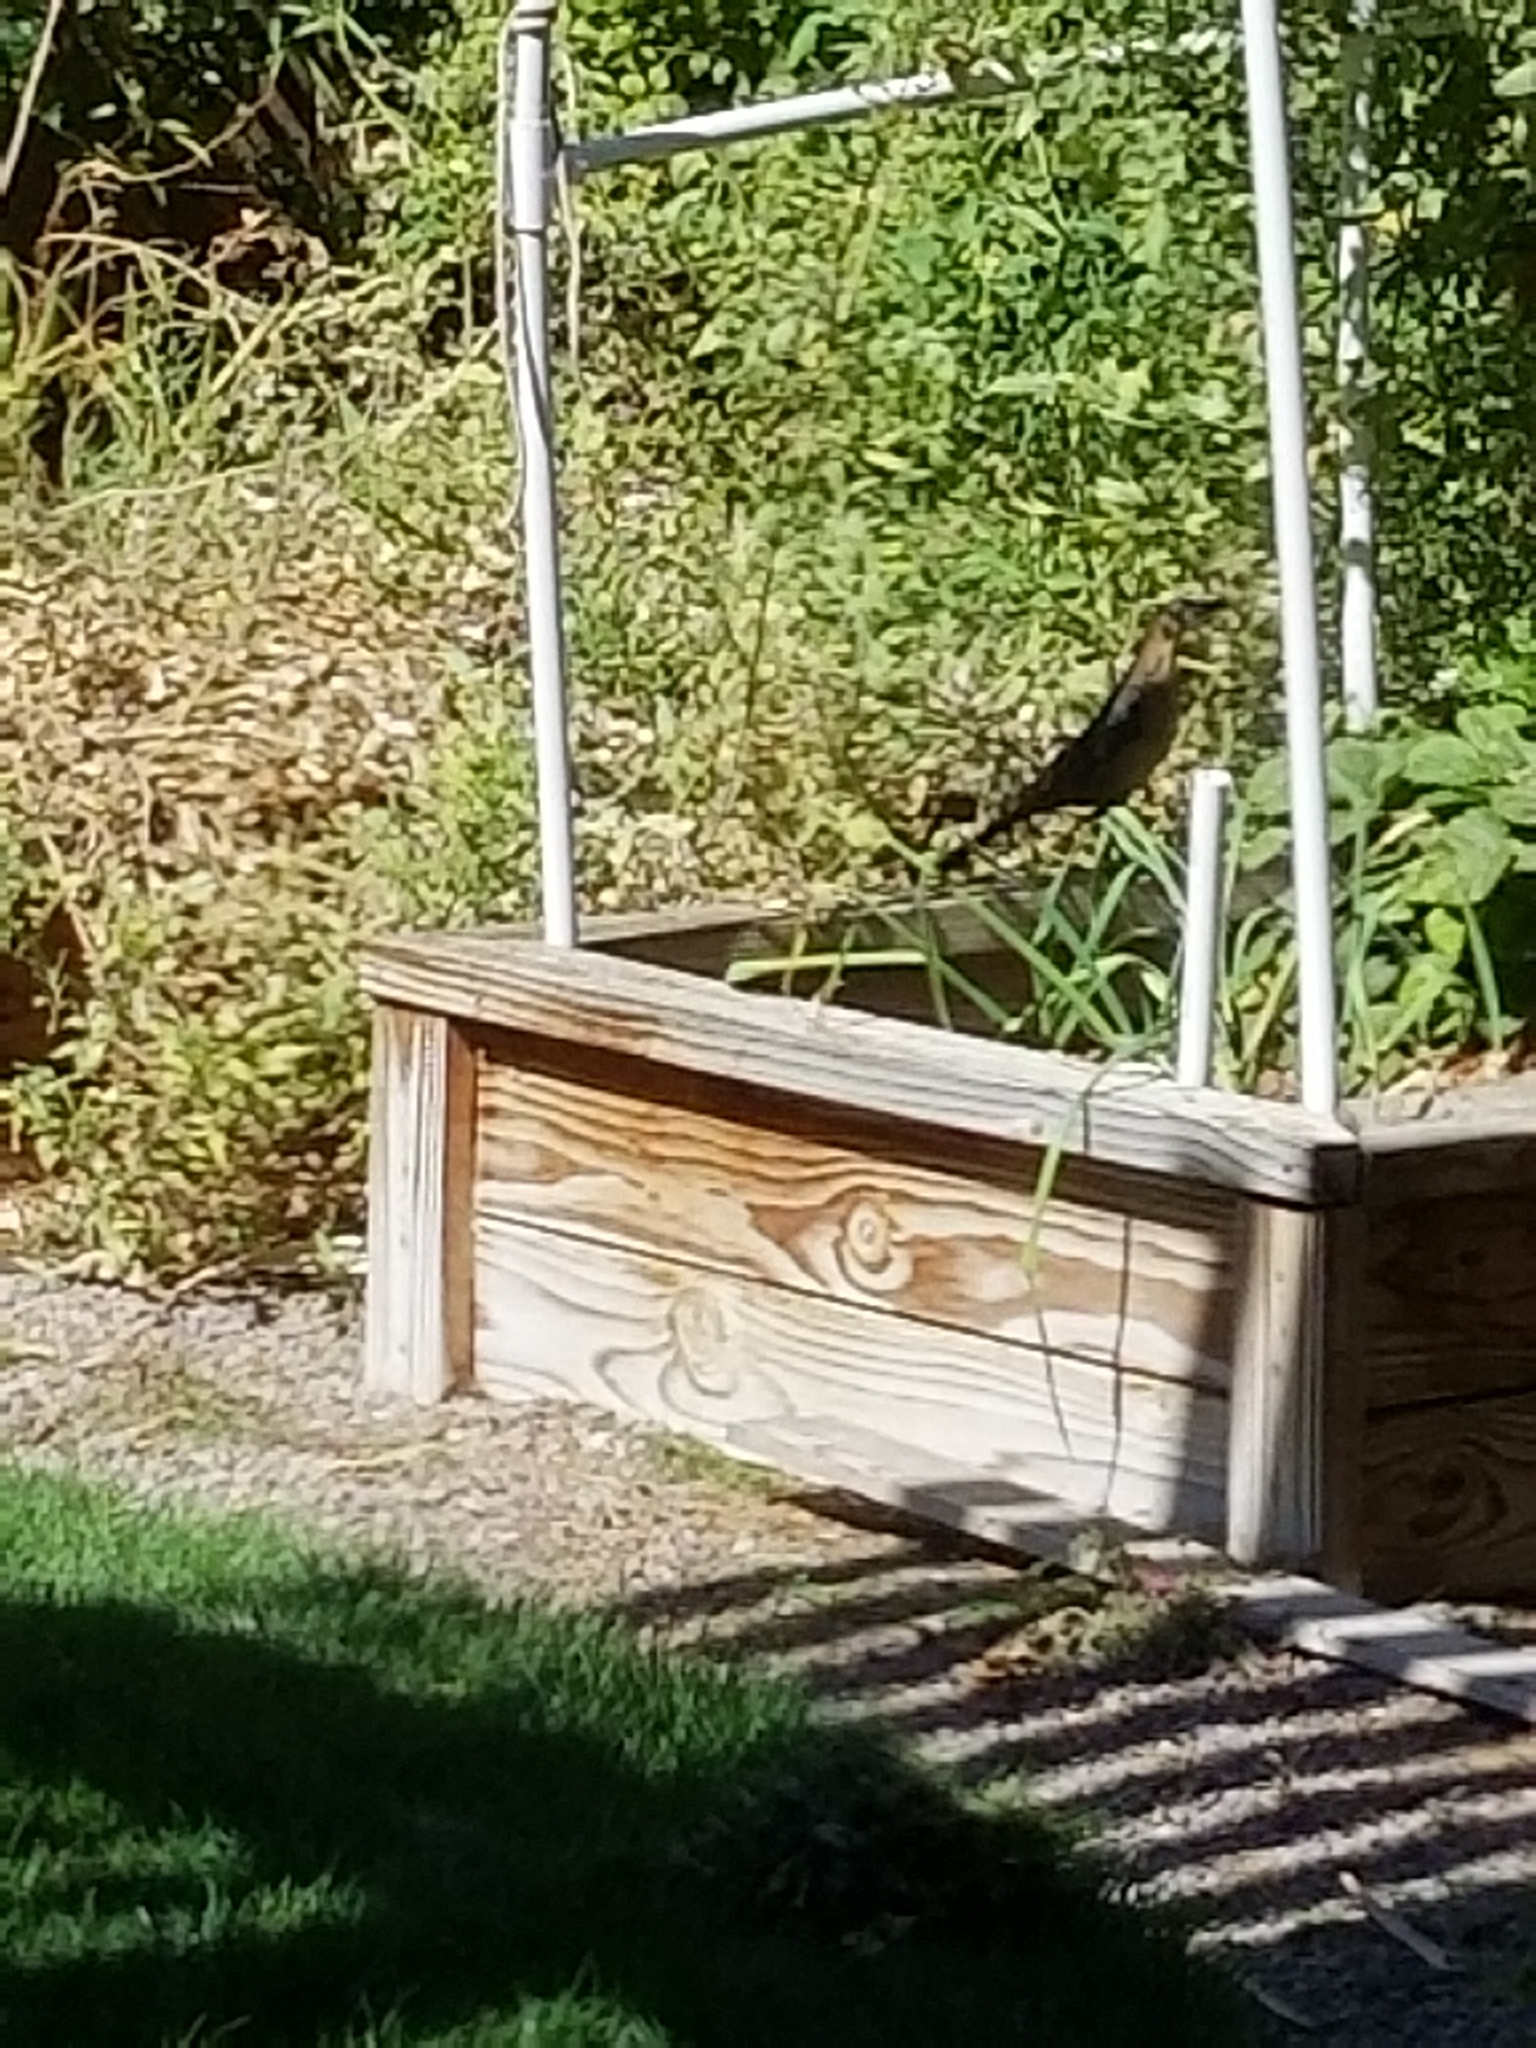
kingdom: Animalia
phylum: Chordata
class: Aves
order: Passeriformes
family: Icteridae
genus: Quiscalus
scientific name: Quiscalus mexicanus
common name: Great-tailed grackle
